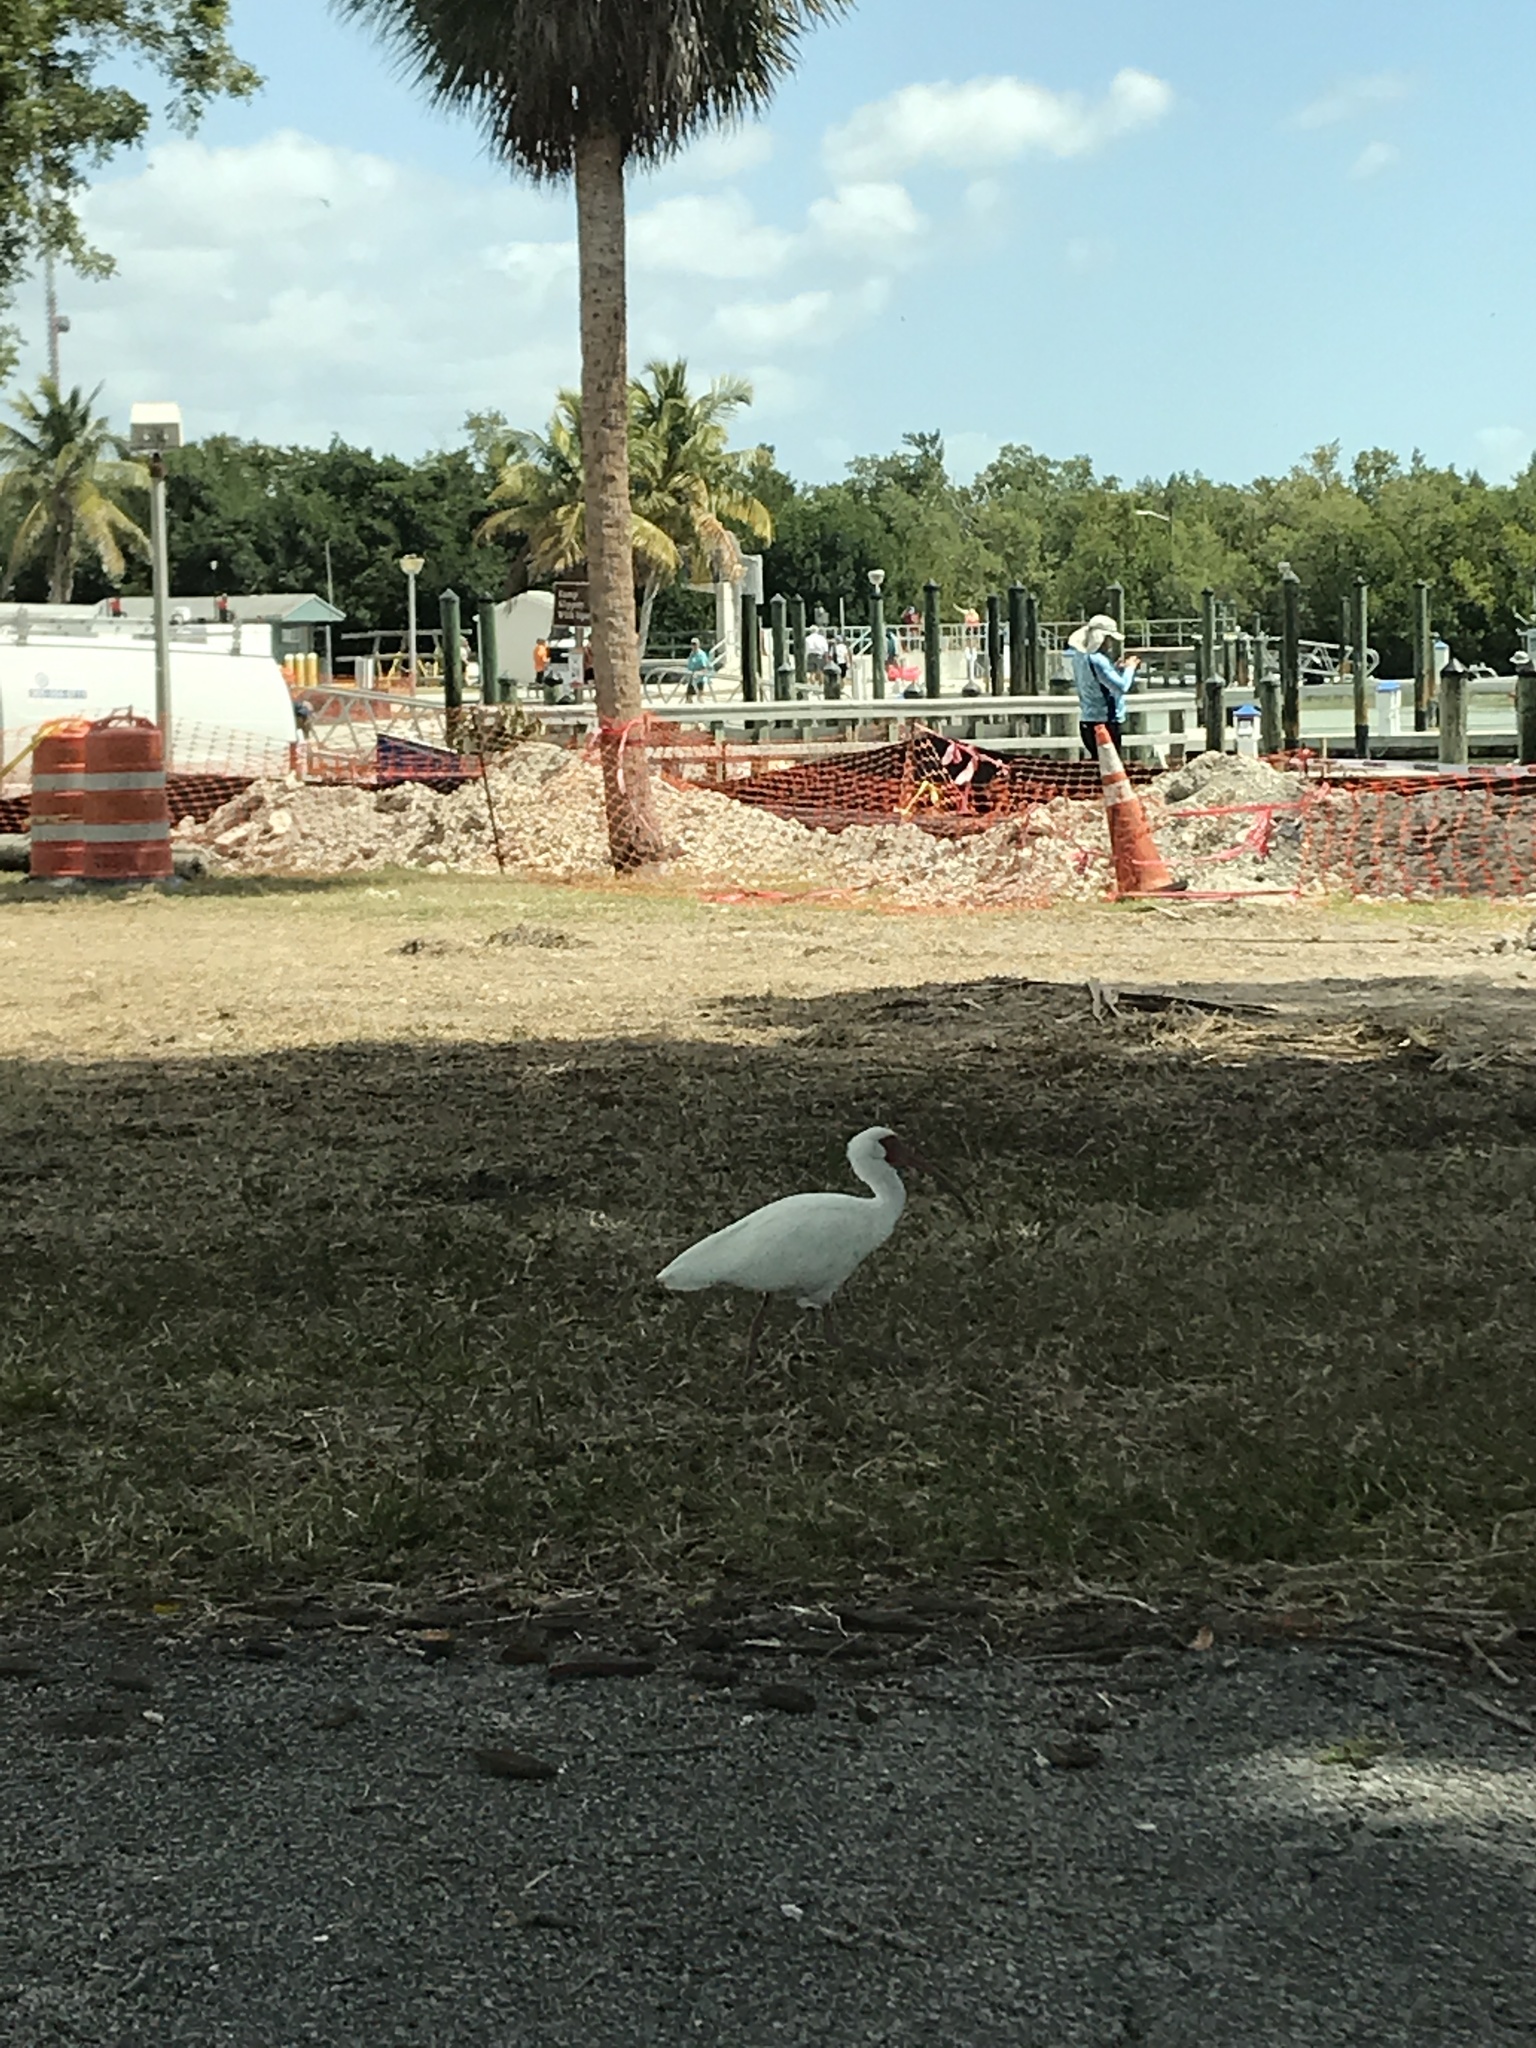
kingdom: Animalia
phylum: Chordata
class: Aves
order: Pelecaniformes
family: Threskiornithidae
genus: Eudocimus
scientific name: Eudocimus albus
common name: White ibis
